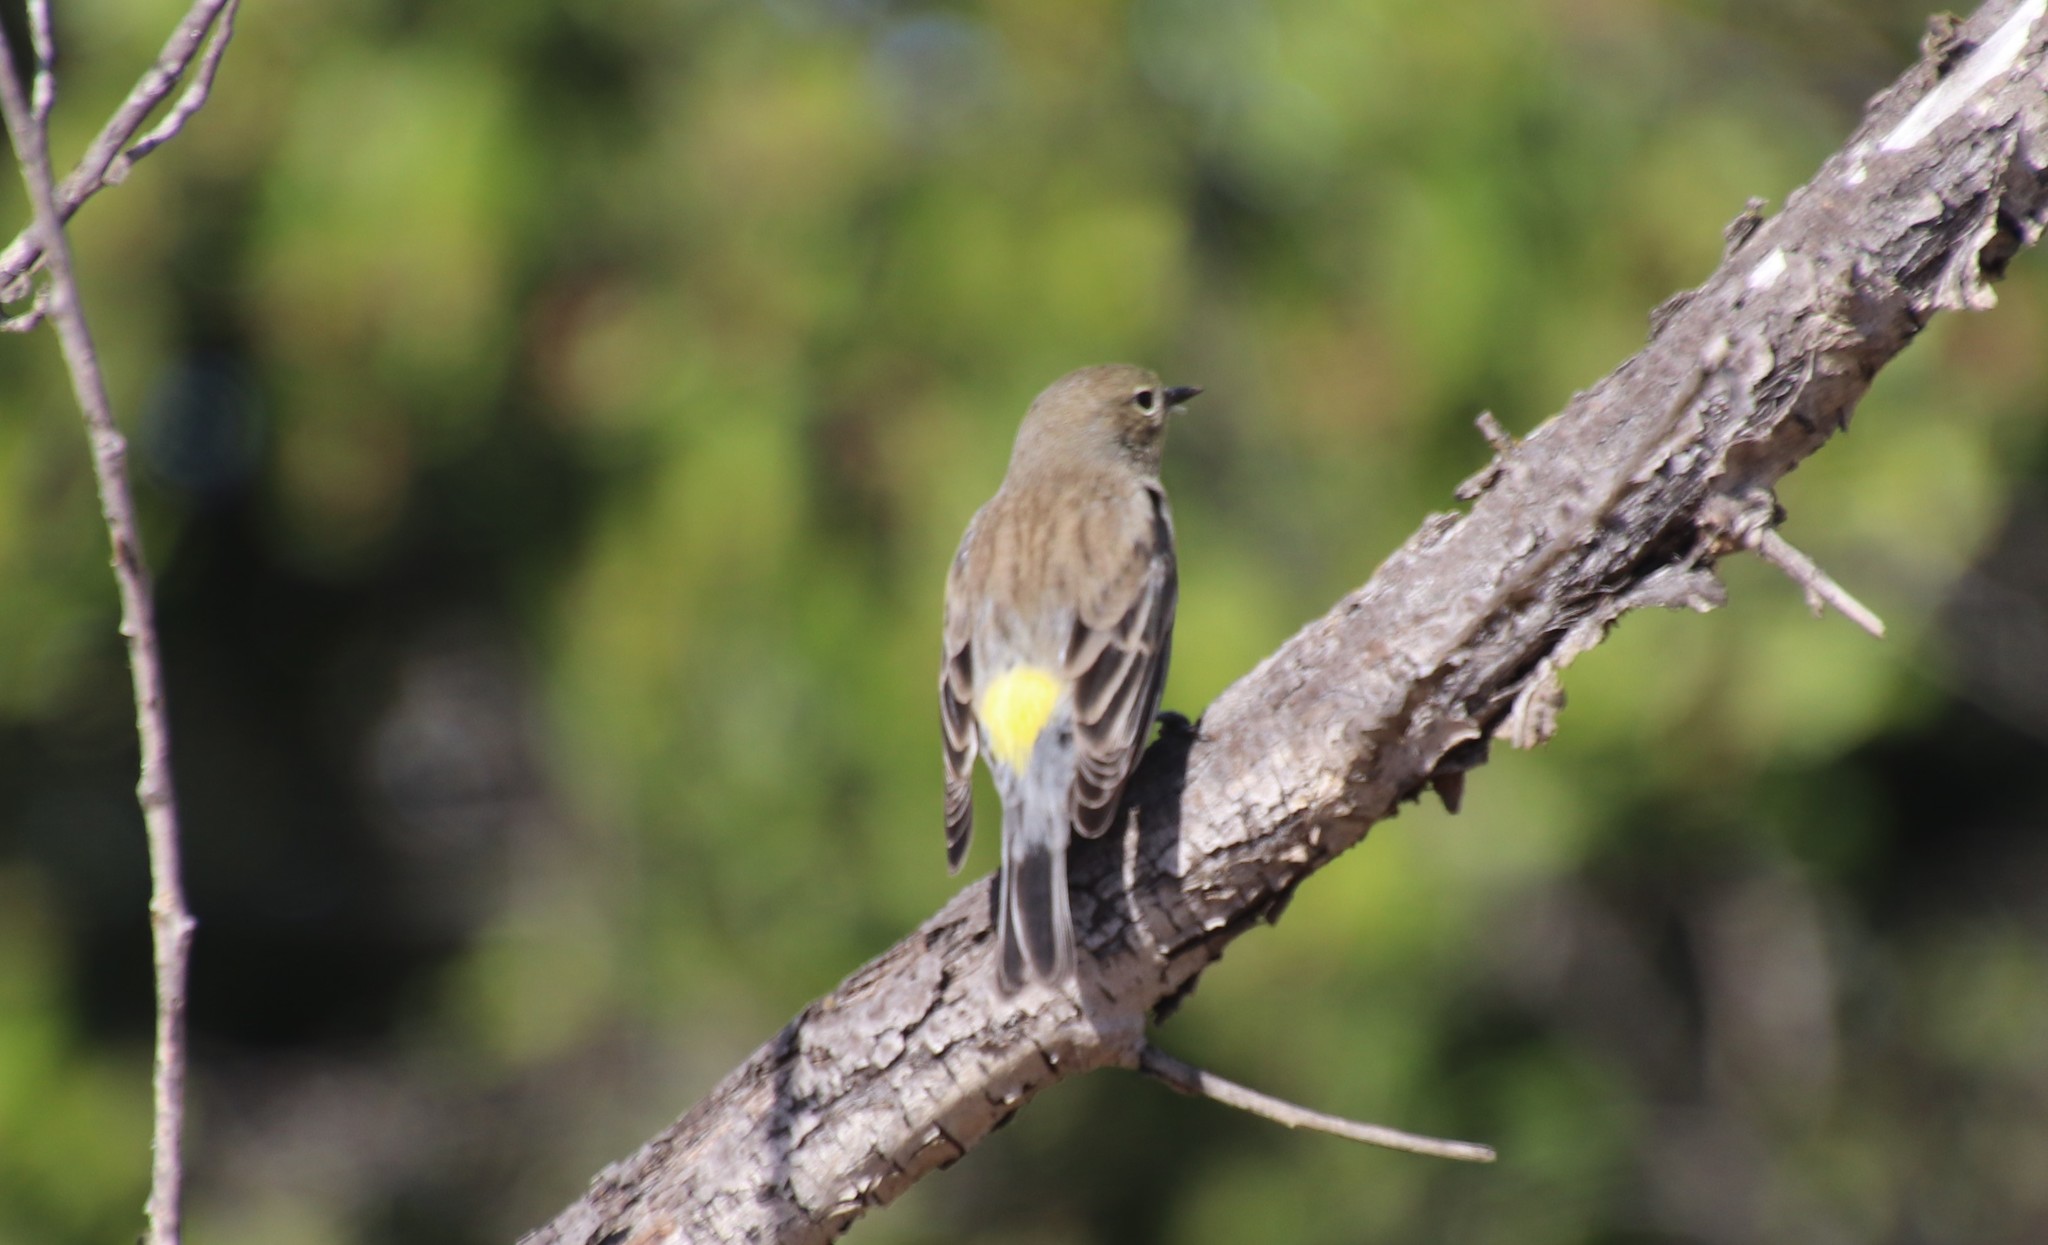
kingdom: Animalia
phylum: Chordata
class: Aves
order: Passeriformes
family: Parulidae
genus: Setophaga
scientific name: Setophaga auduboni
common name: Audubon's warbler
